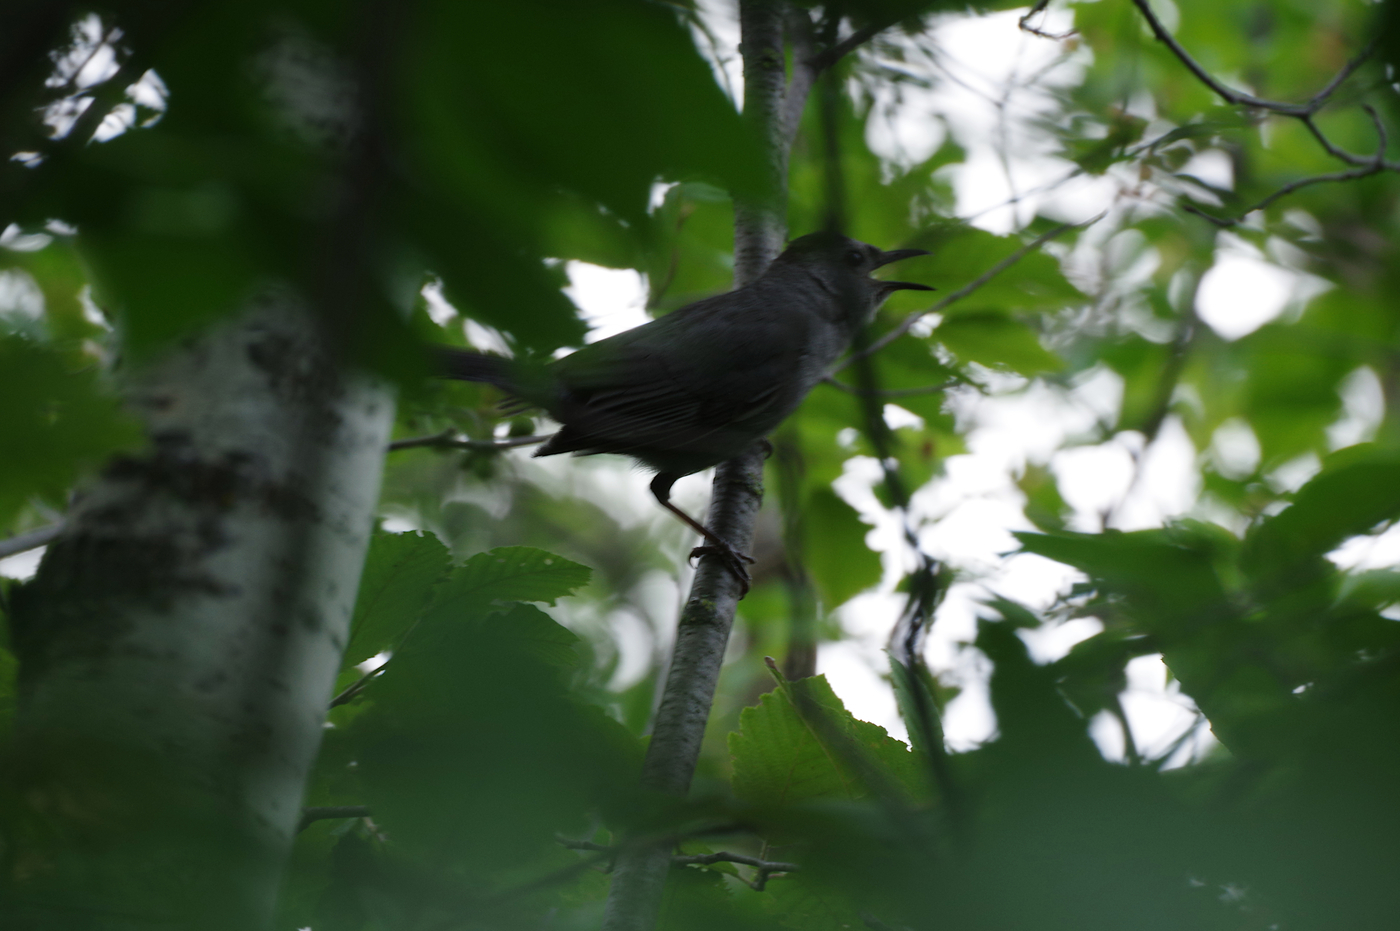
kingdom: Animalia
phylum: Chordata
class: Aves
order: Passeriformes
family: Mimidae
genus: Dumetella
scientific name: Dumetella carolinensis
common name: Gray catbird
